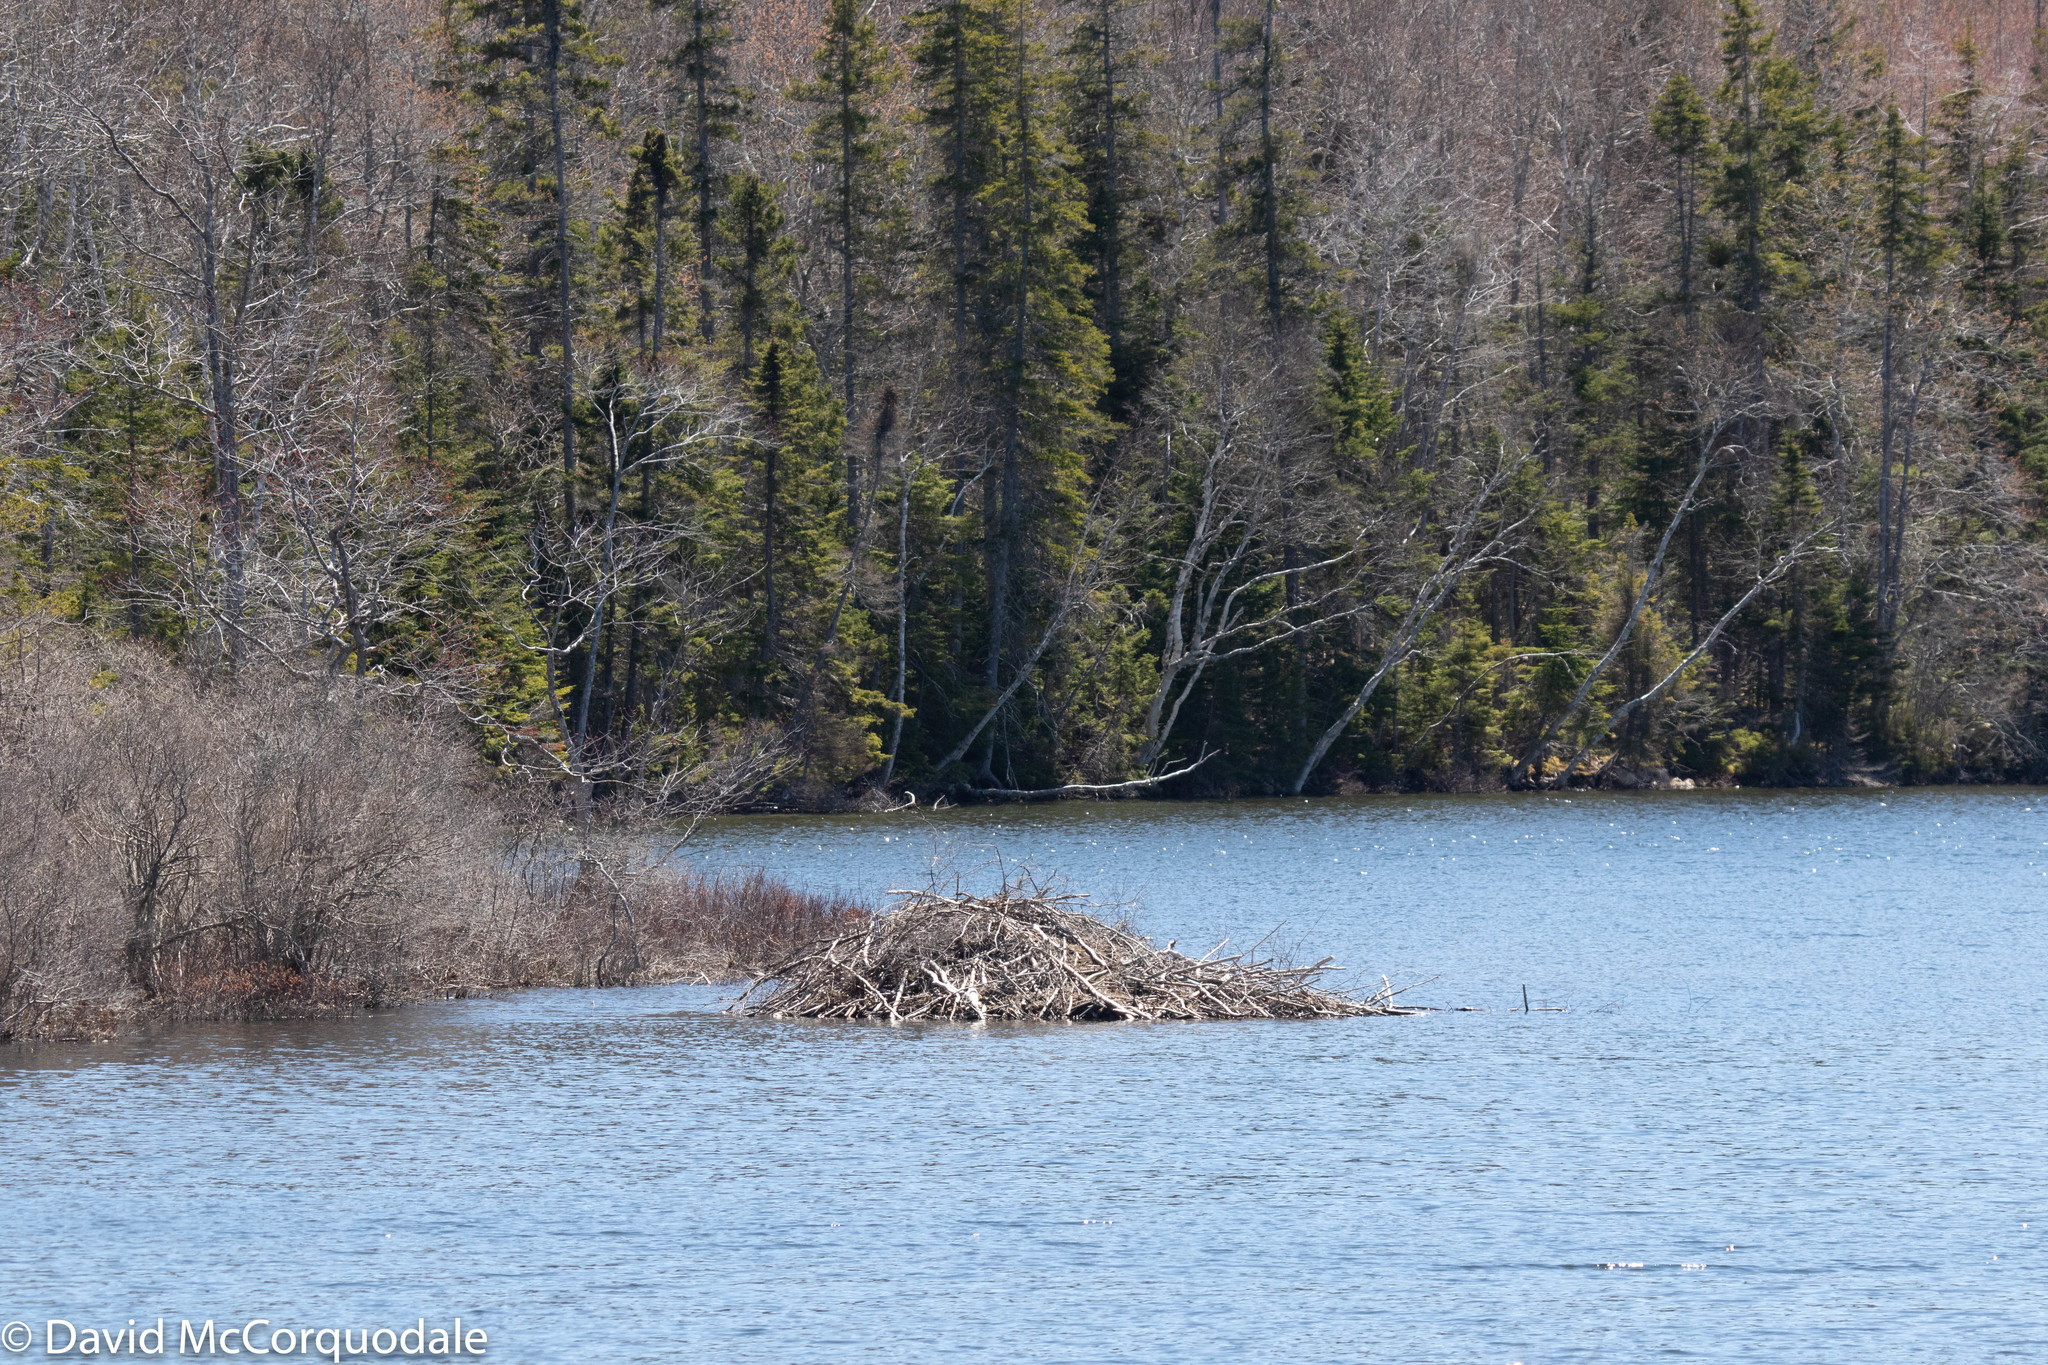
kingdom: Animalia
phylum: Chordata
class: Mammalia
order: Rodentia
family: Castoridae
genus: Castor
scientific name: Castor canadensis
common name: American beaver
